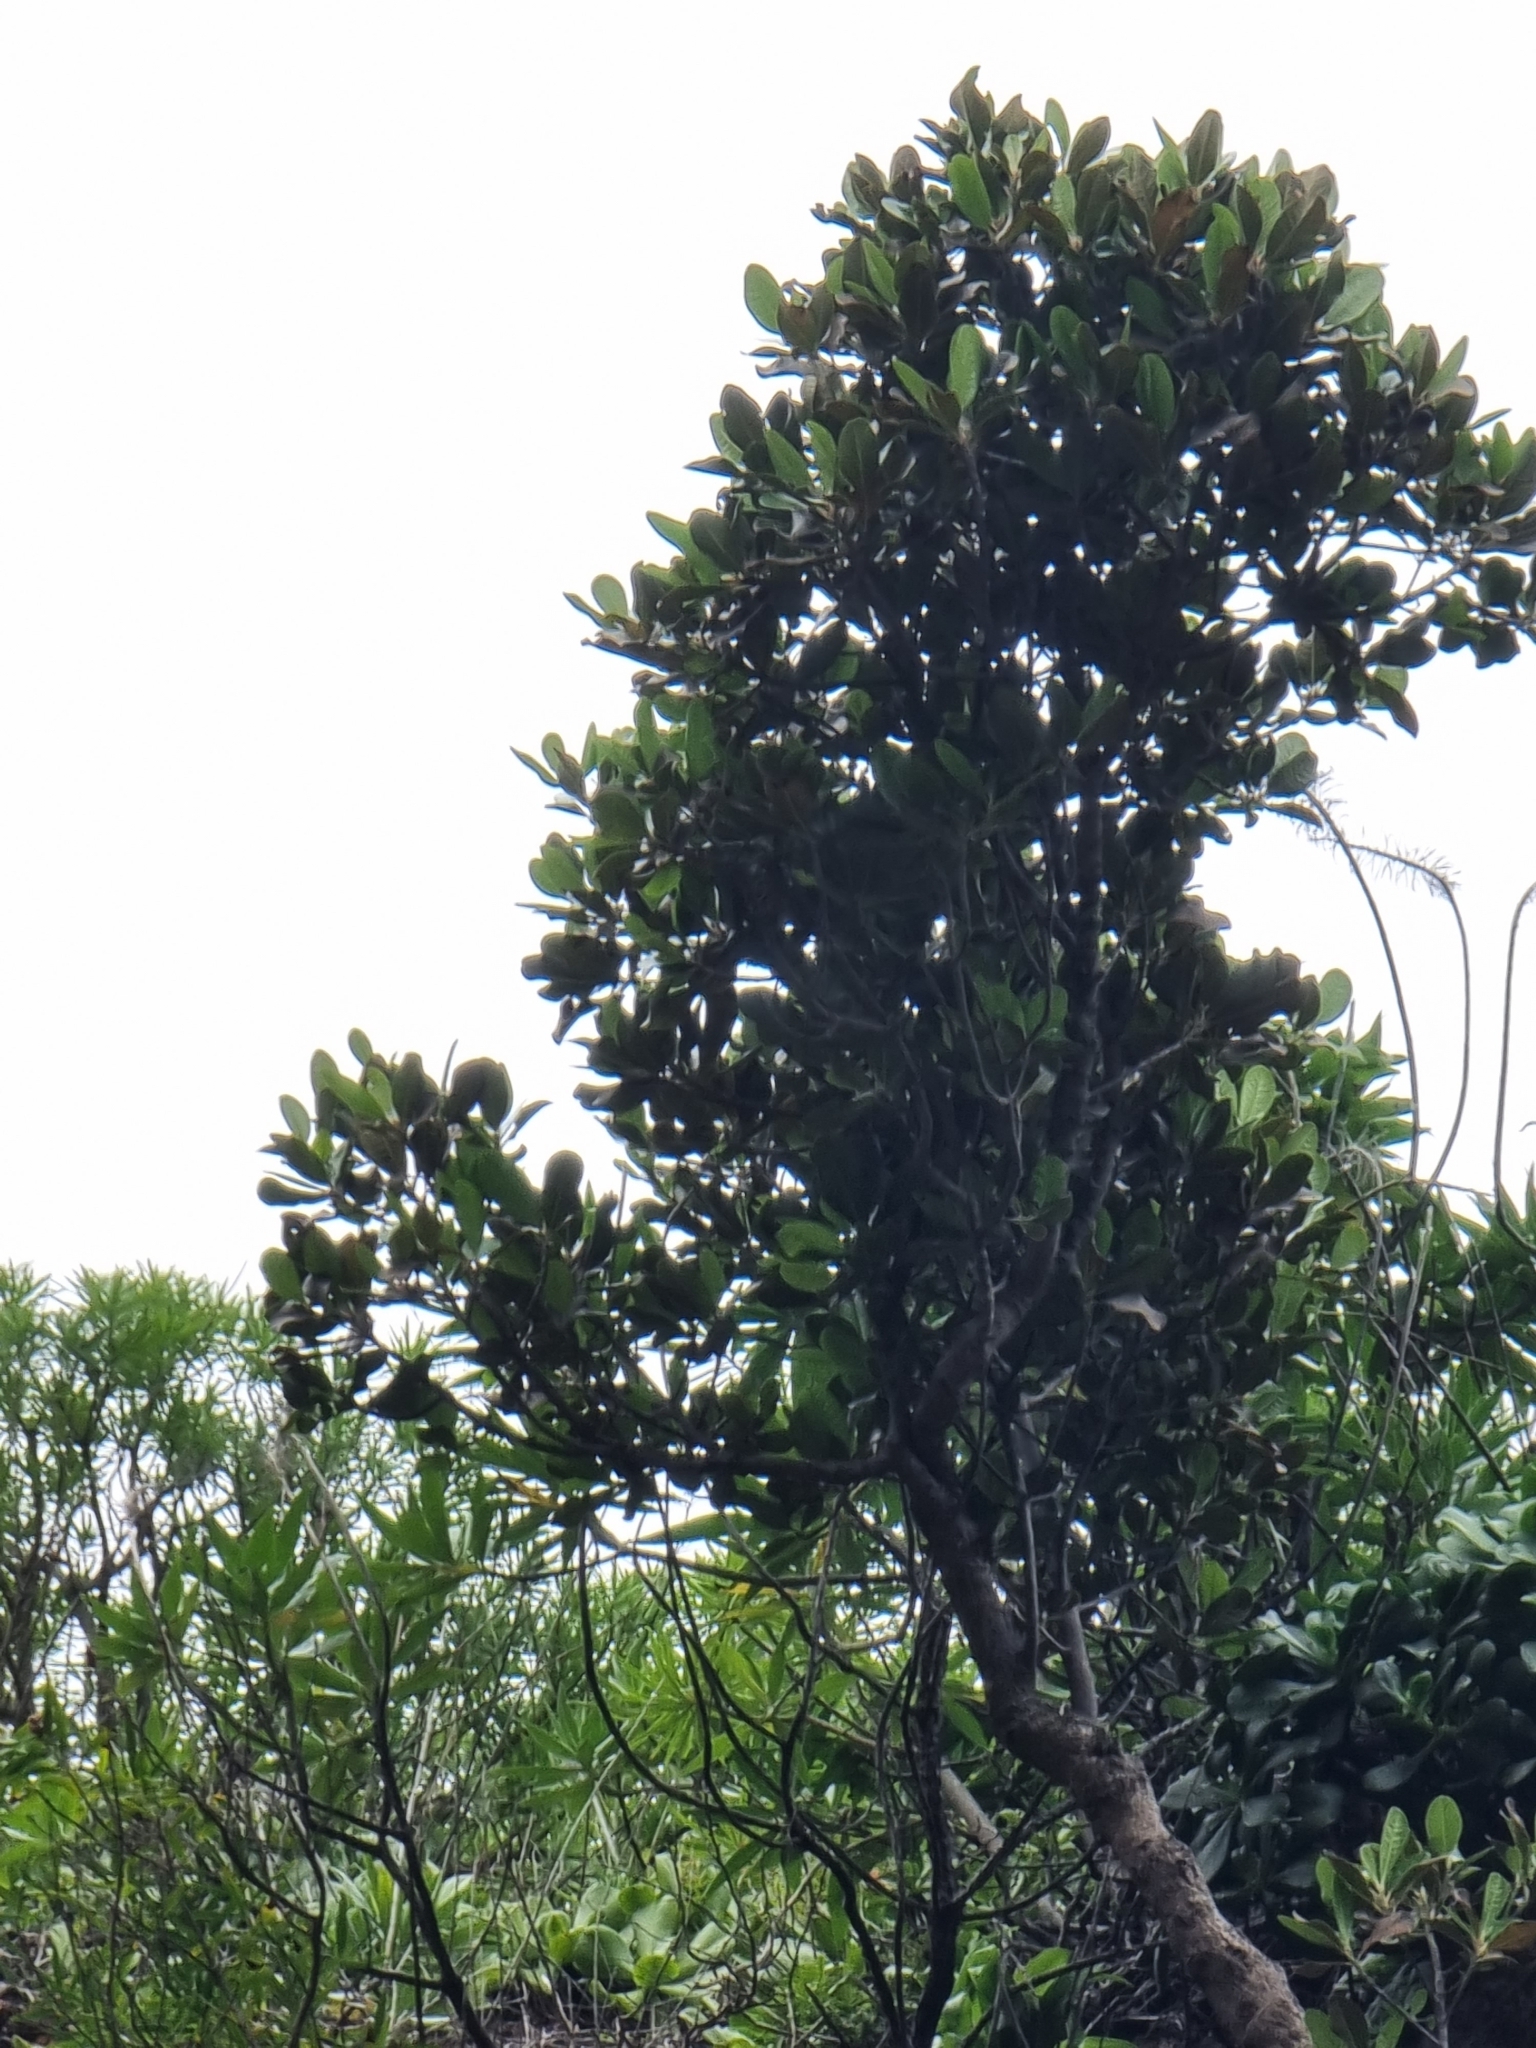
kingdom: Plantae
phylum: Tracheophyta
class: Magnoliopsida
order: Ericales
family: Sapotaceae
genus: Sideroxylon
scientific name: Sideroxylon mirmulans
